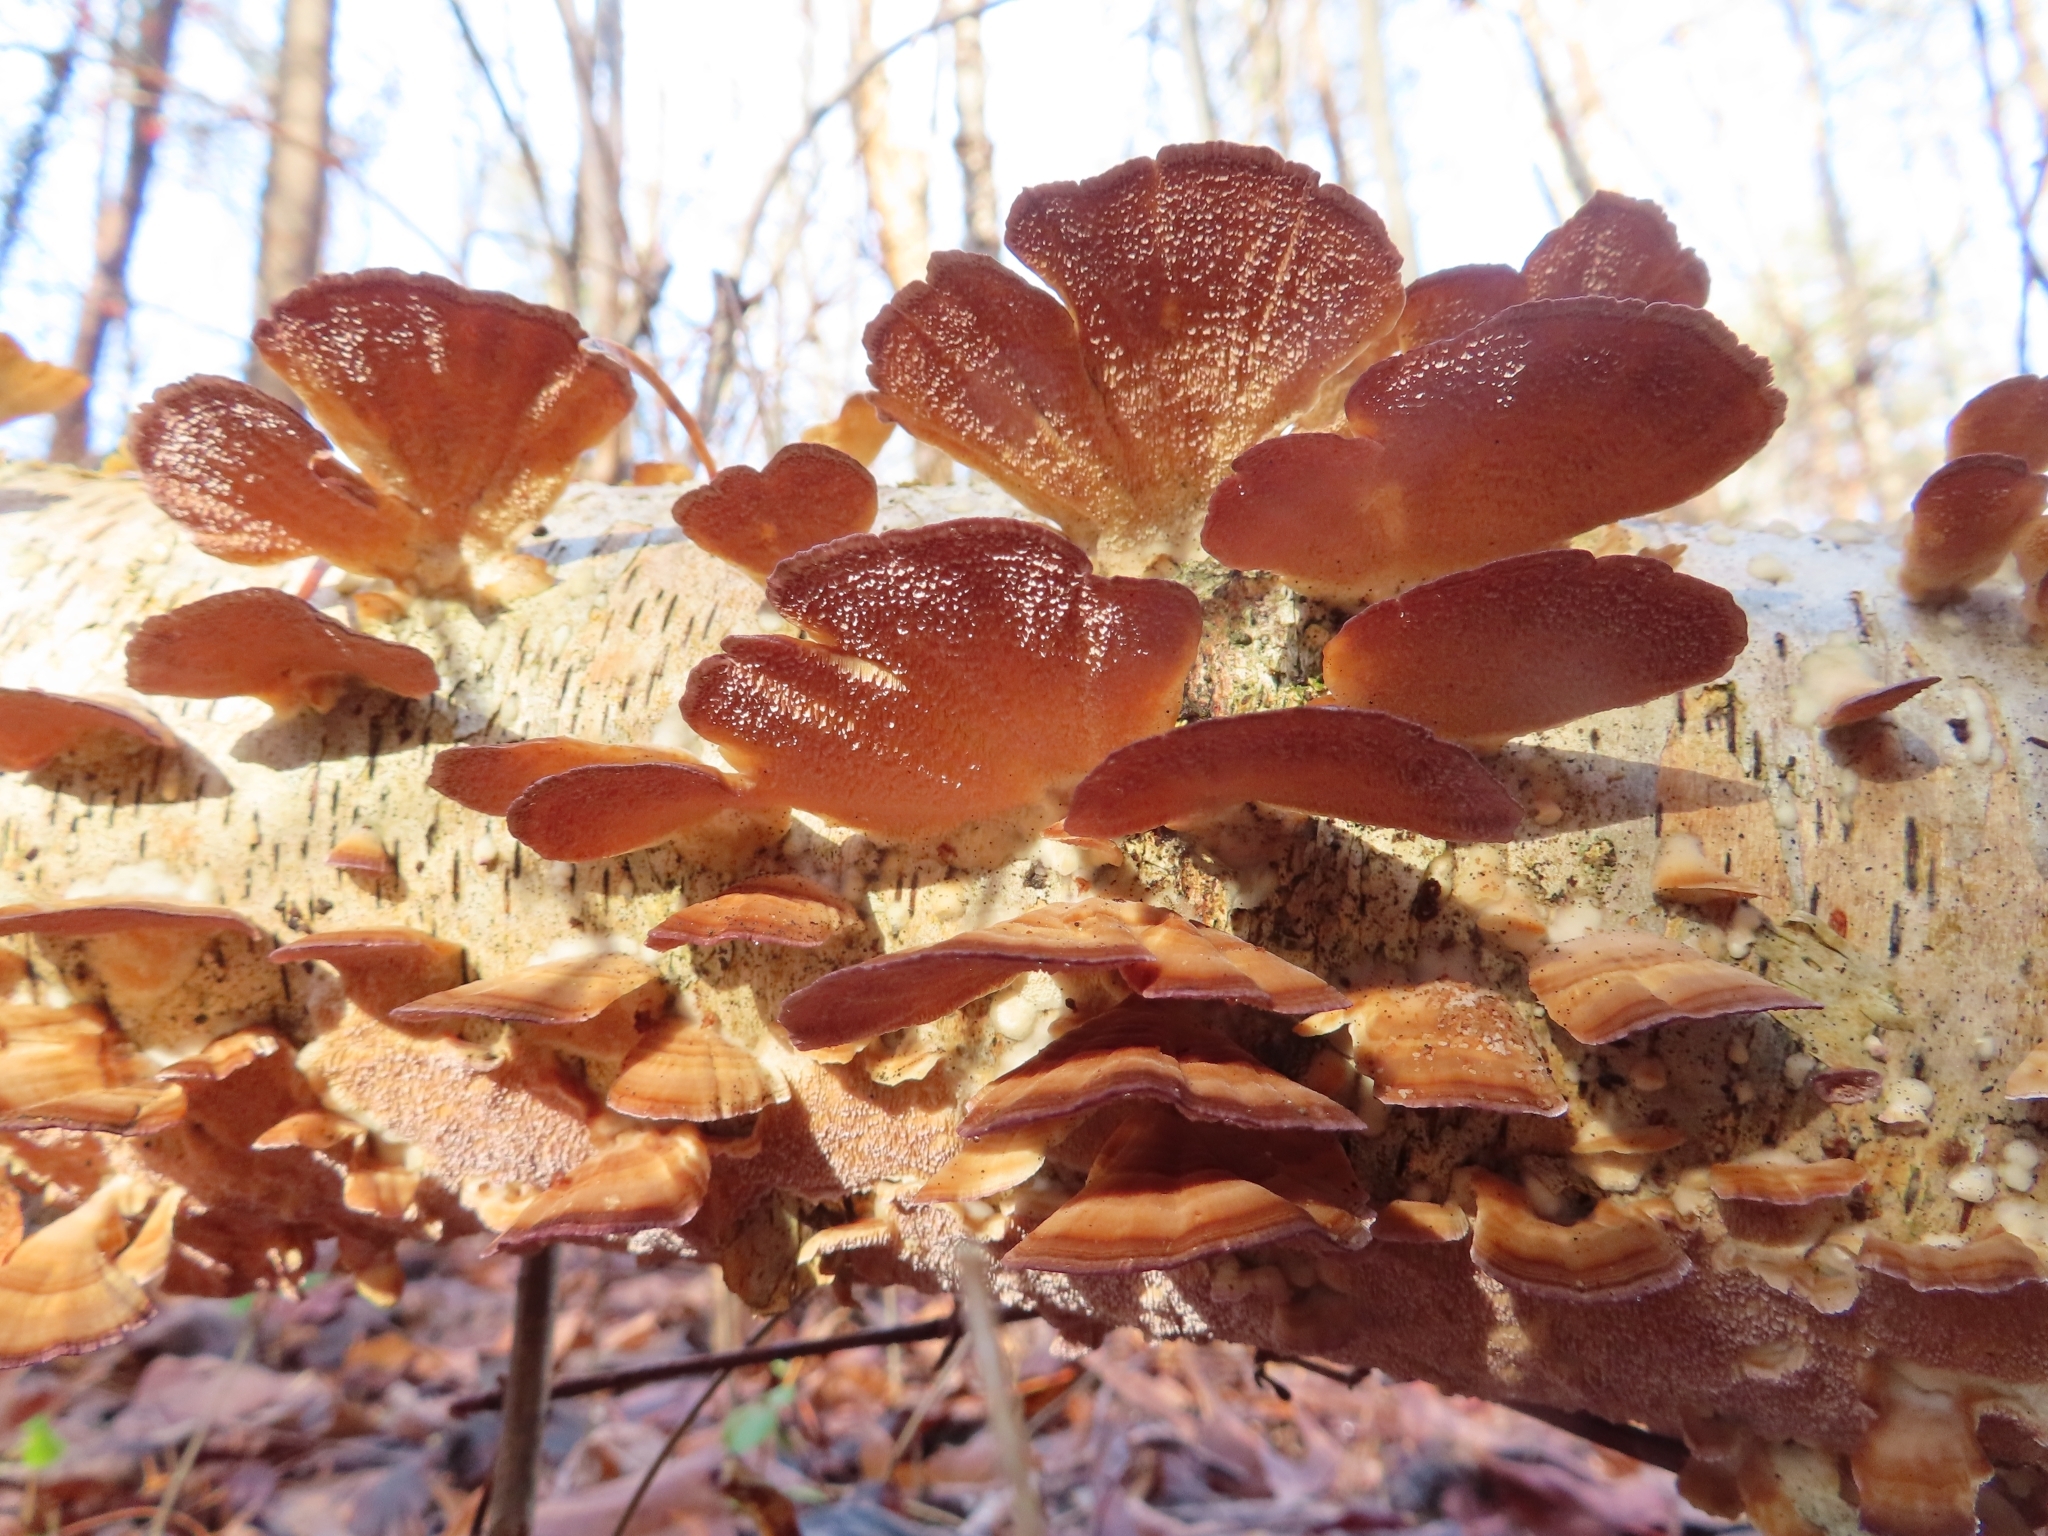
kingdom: Fungi
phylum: Basidiomycota
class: Agaricomycetes
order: Hymenochaetales
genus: Trichaptum
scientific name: Trichaptum biforme
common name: Violet-toothed polypore
